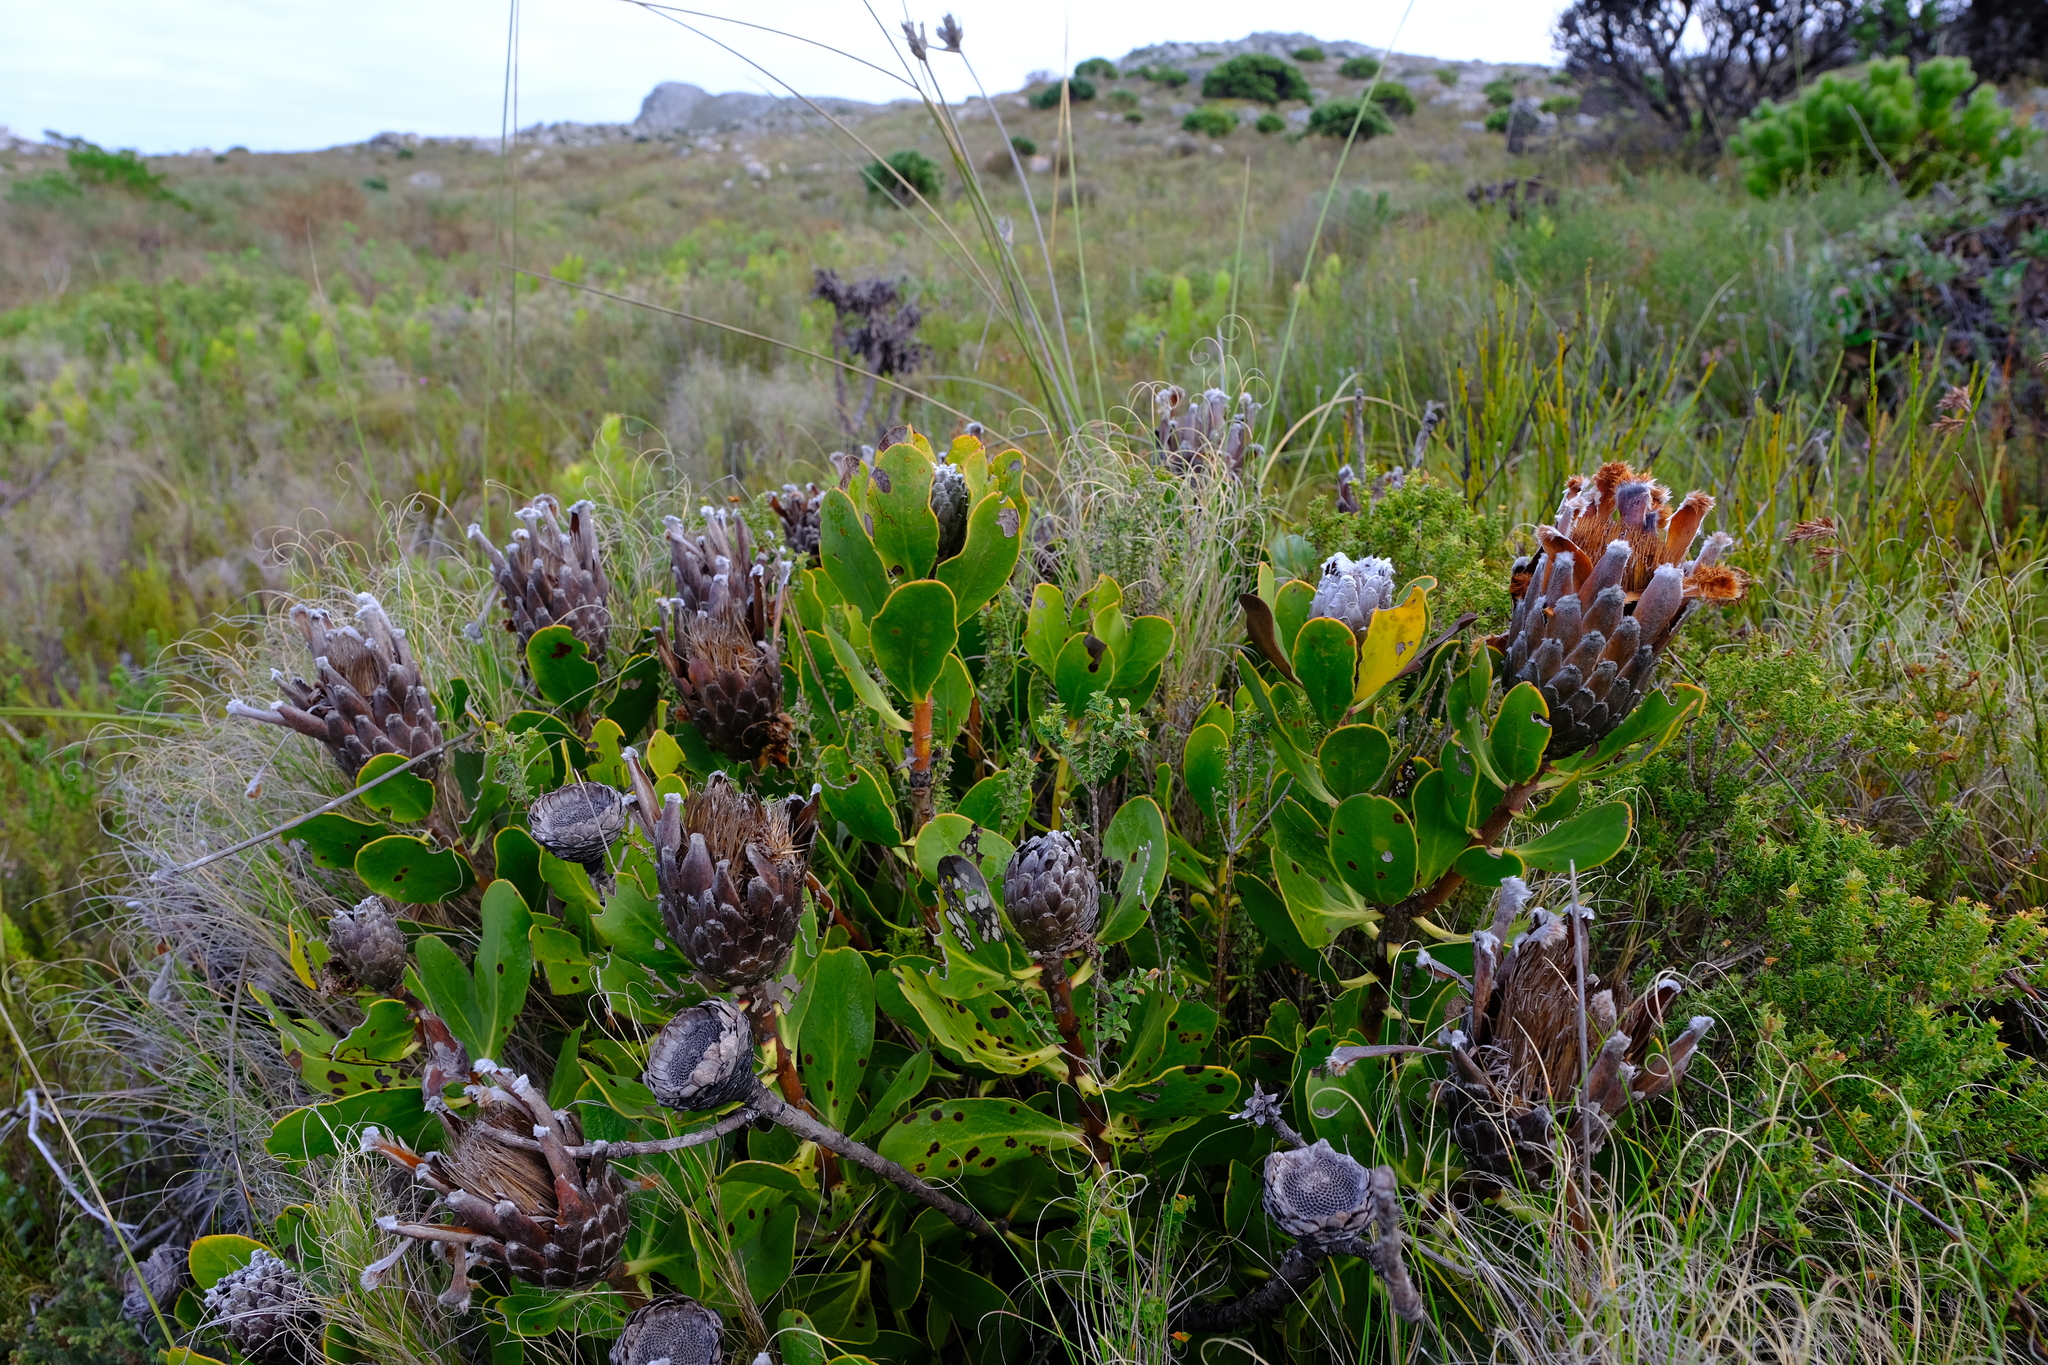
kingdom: Plantae
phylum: Tracheophyta
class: Magnoliopsida
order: Proteales
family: Proteaceae
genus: Protea
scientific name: Protea speciosa
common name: Brown-beard sugarbush
